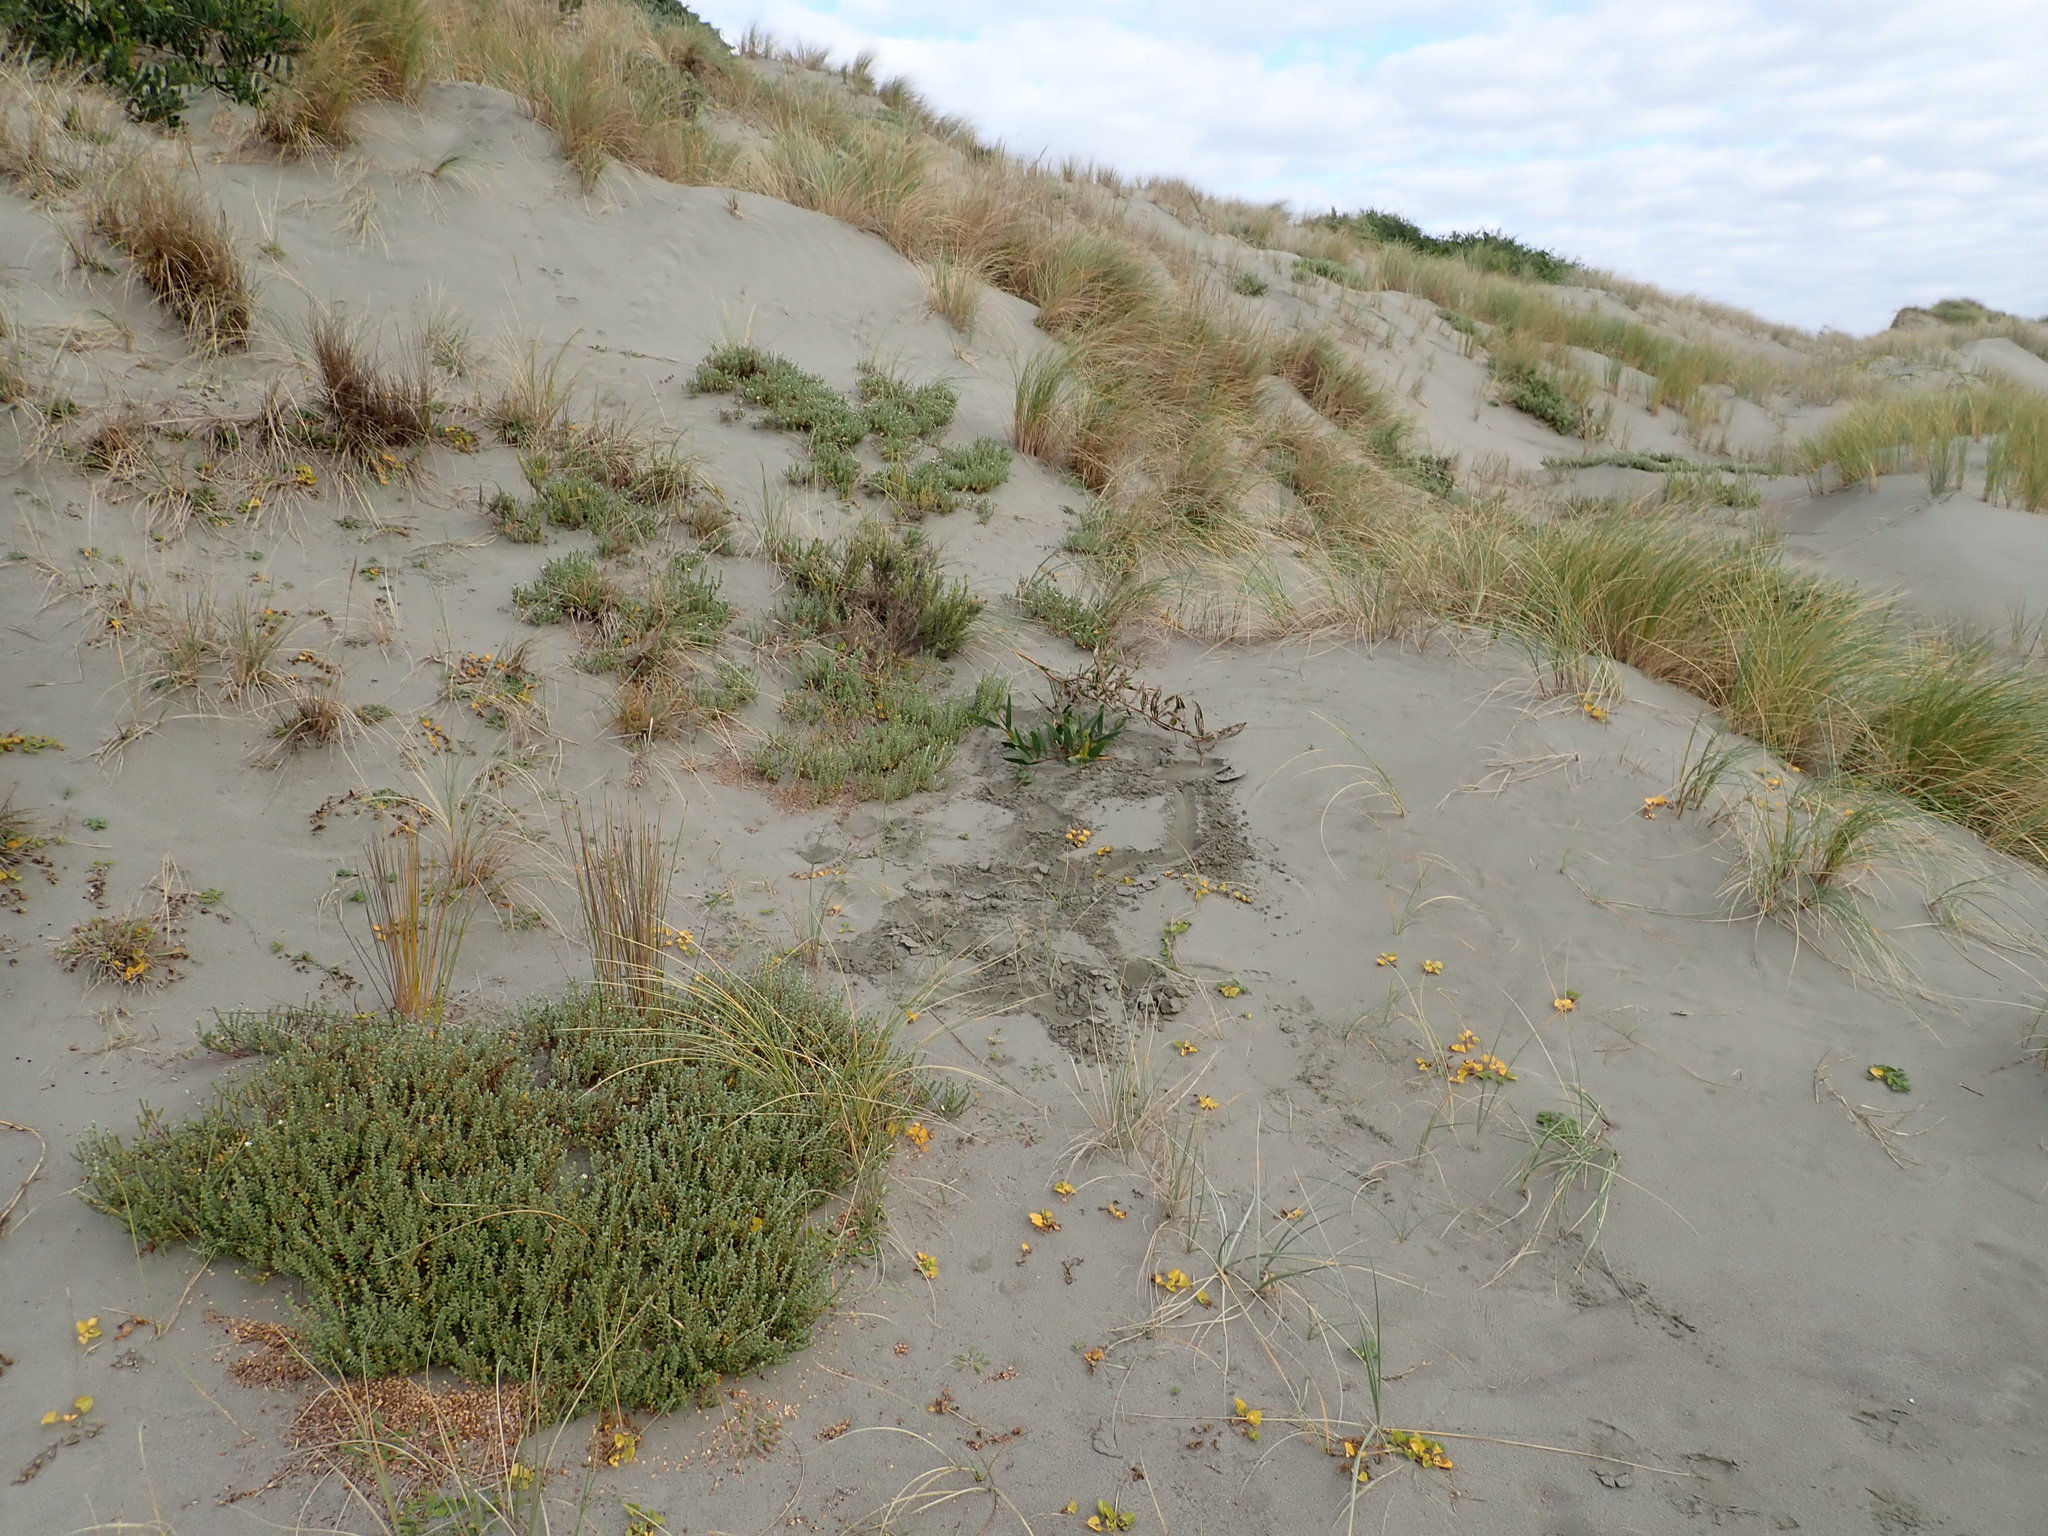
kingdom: Plantae
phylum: Tracheophyta
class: Magnoliopsida
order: Malvales
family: Thymelaeaceae
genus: Pimelea
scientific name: Pimelea villosa
